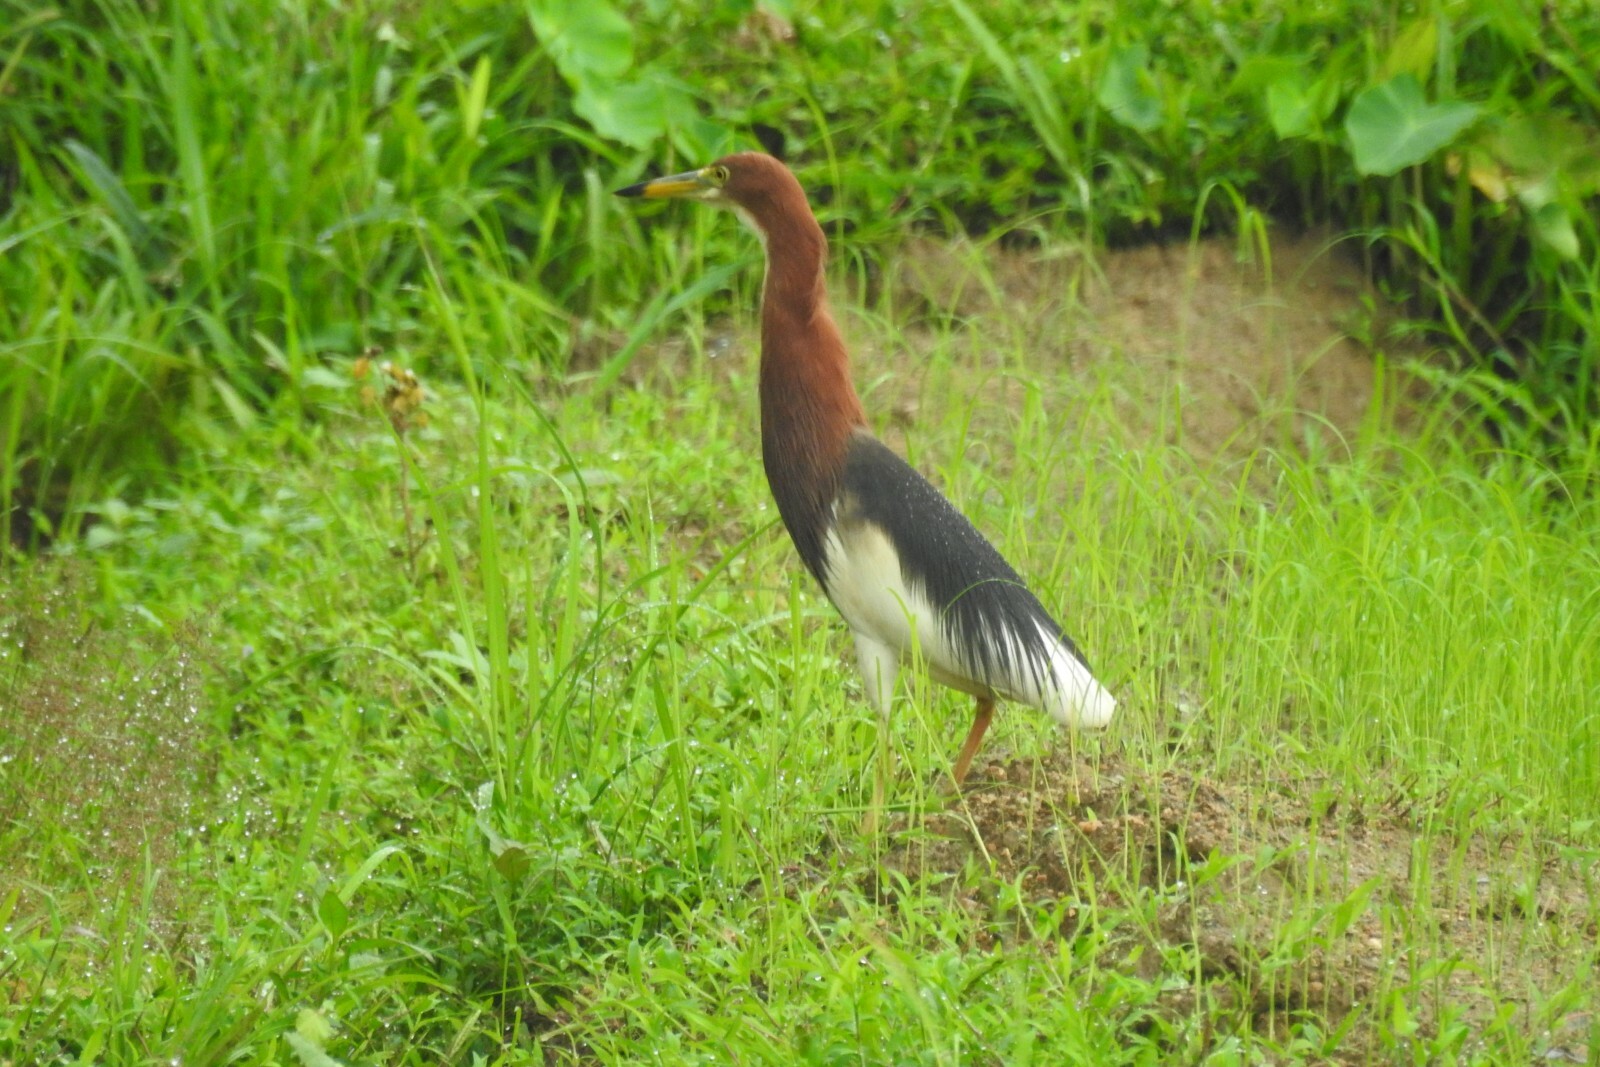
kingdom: Animalia
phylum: Chordata
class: Aves
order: Pelecaniformes
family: Ardeidae
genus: Ardeola
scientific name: Ardeola bacchus
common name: Chinese pond heron
